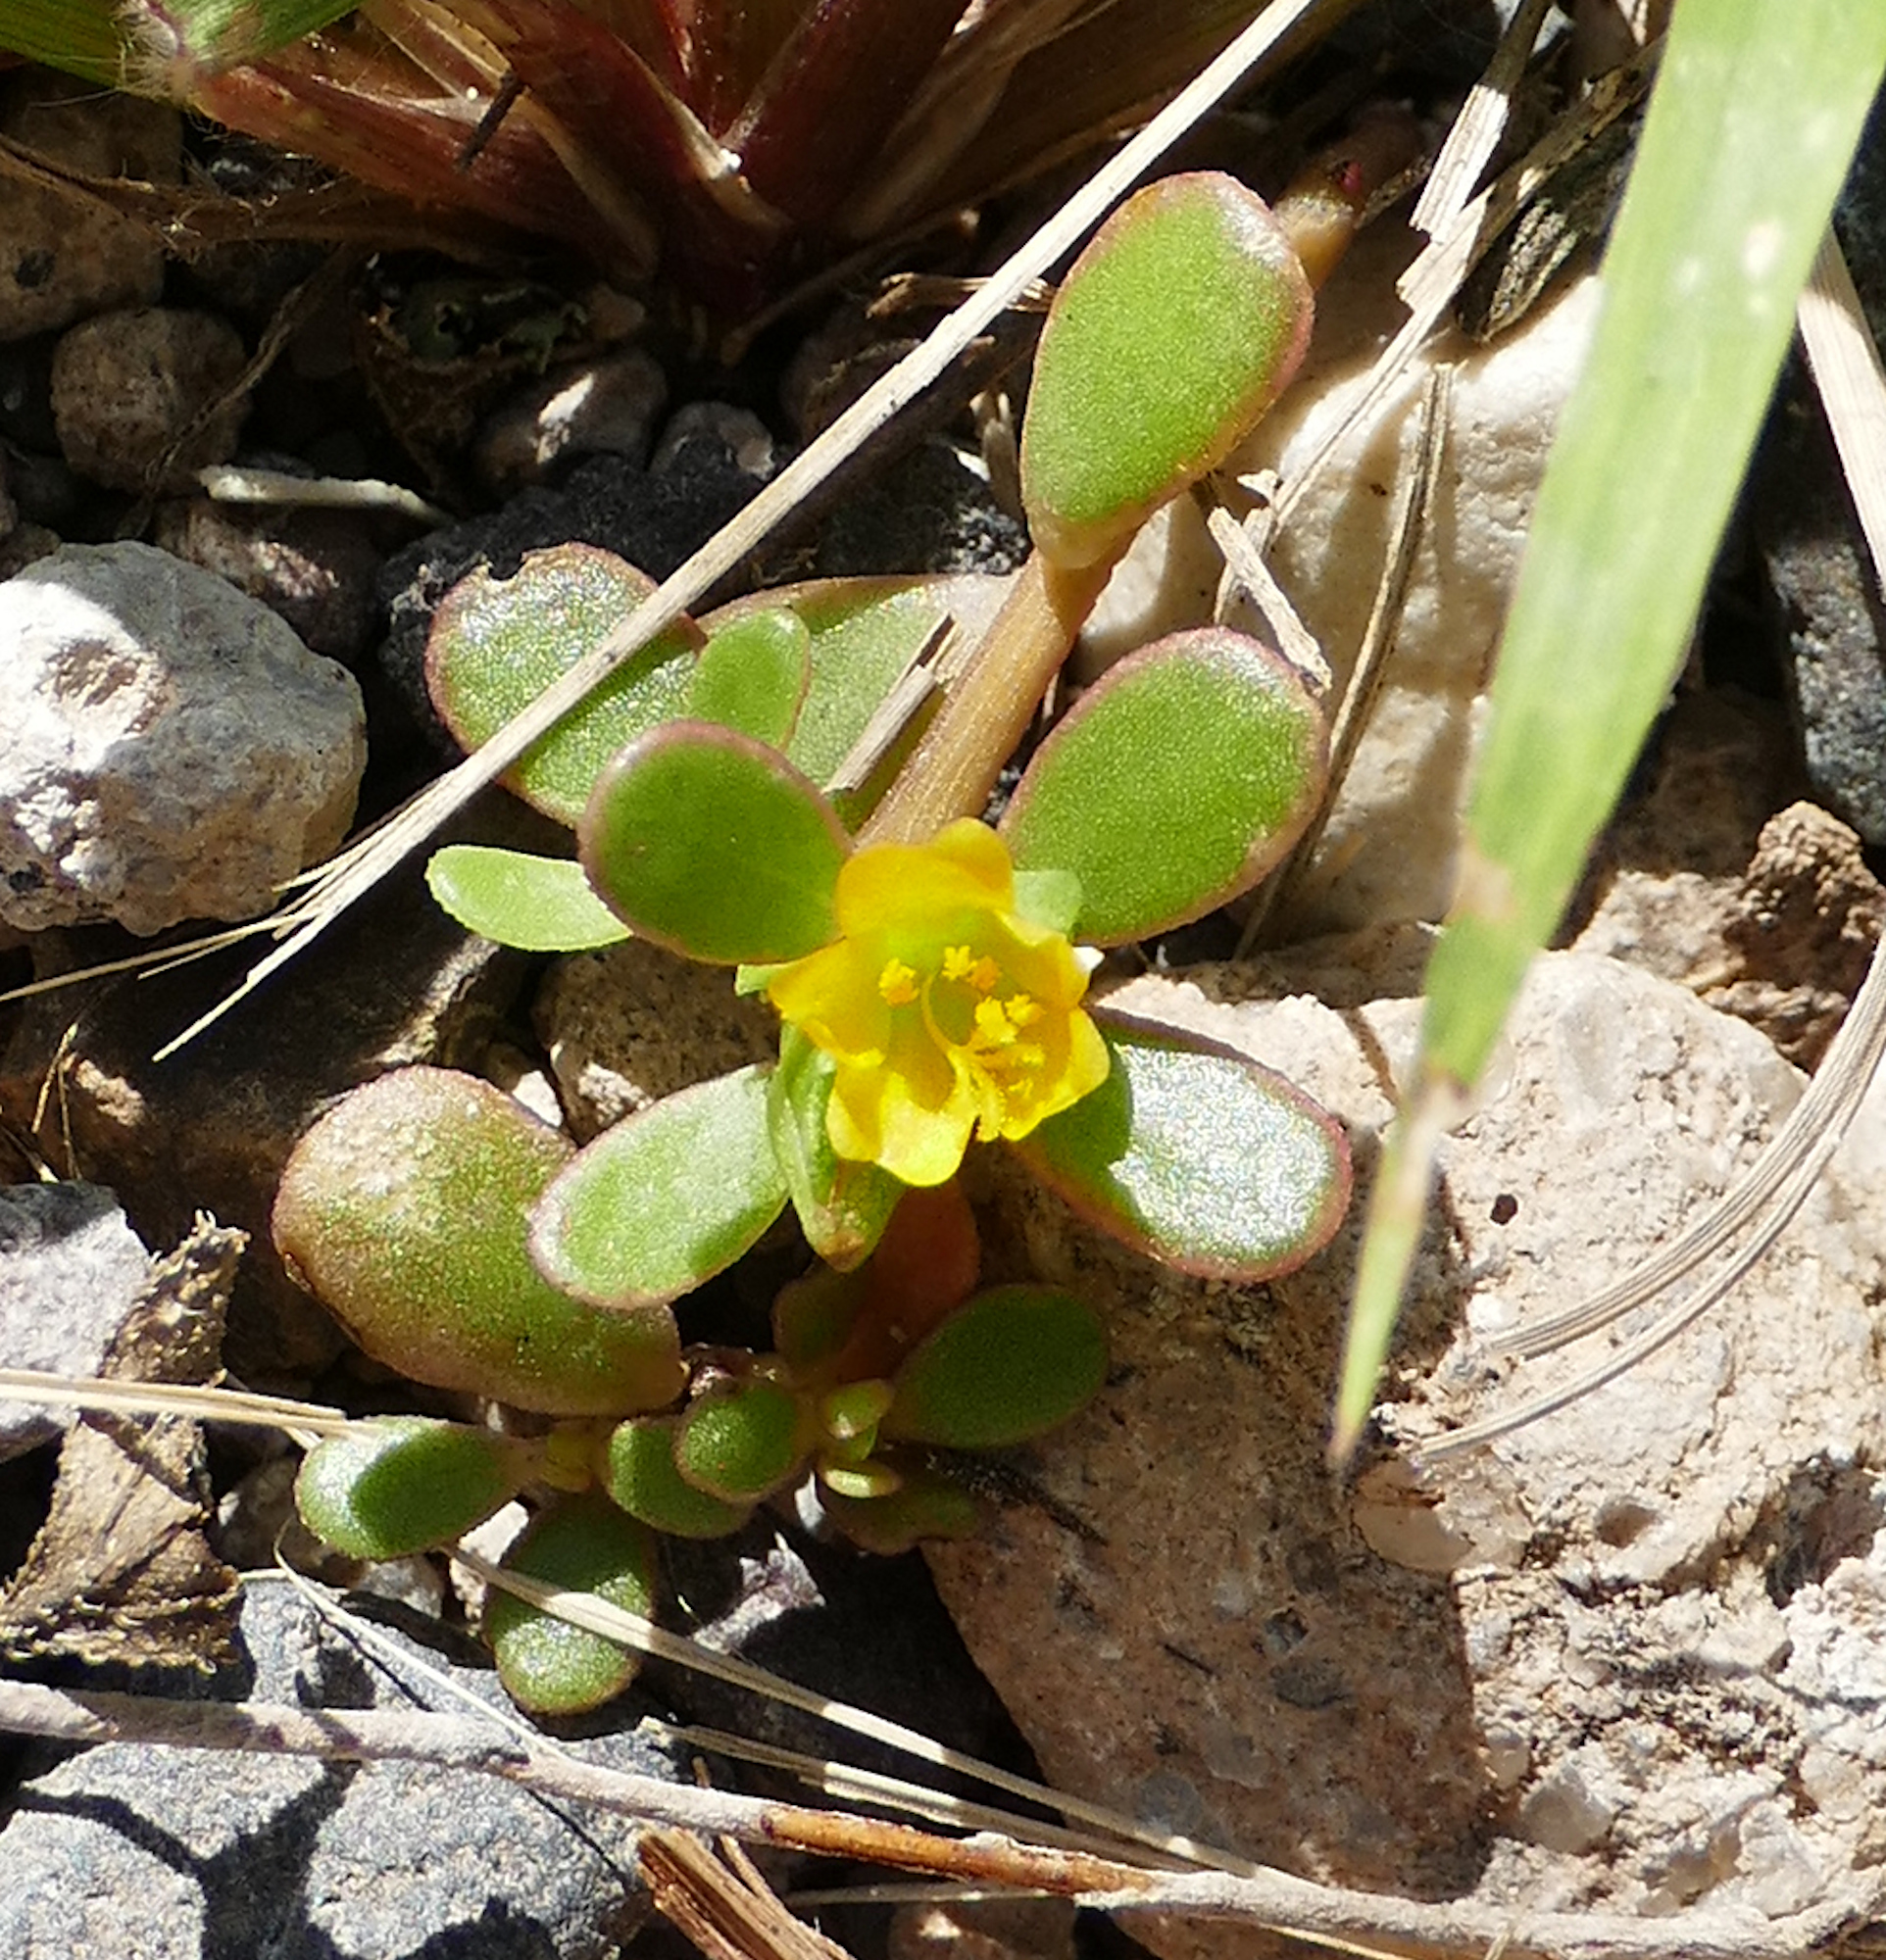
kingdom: Plantae
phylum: Tracheophyta
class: Magnoliopsida
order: Caryophyllales
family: Portulacaceae
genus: Portulaca
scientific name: Portulaca oleracea
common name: Common purslane
